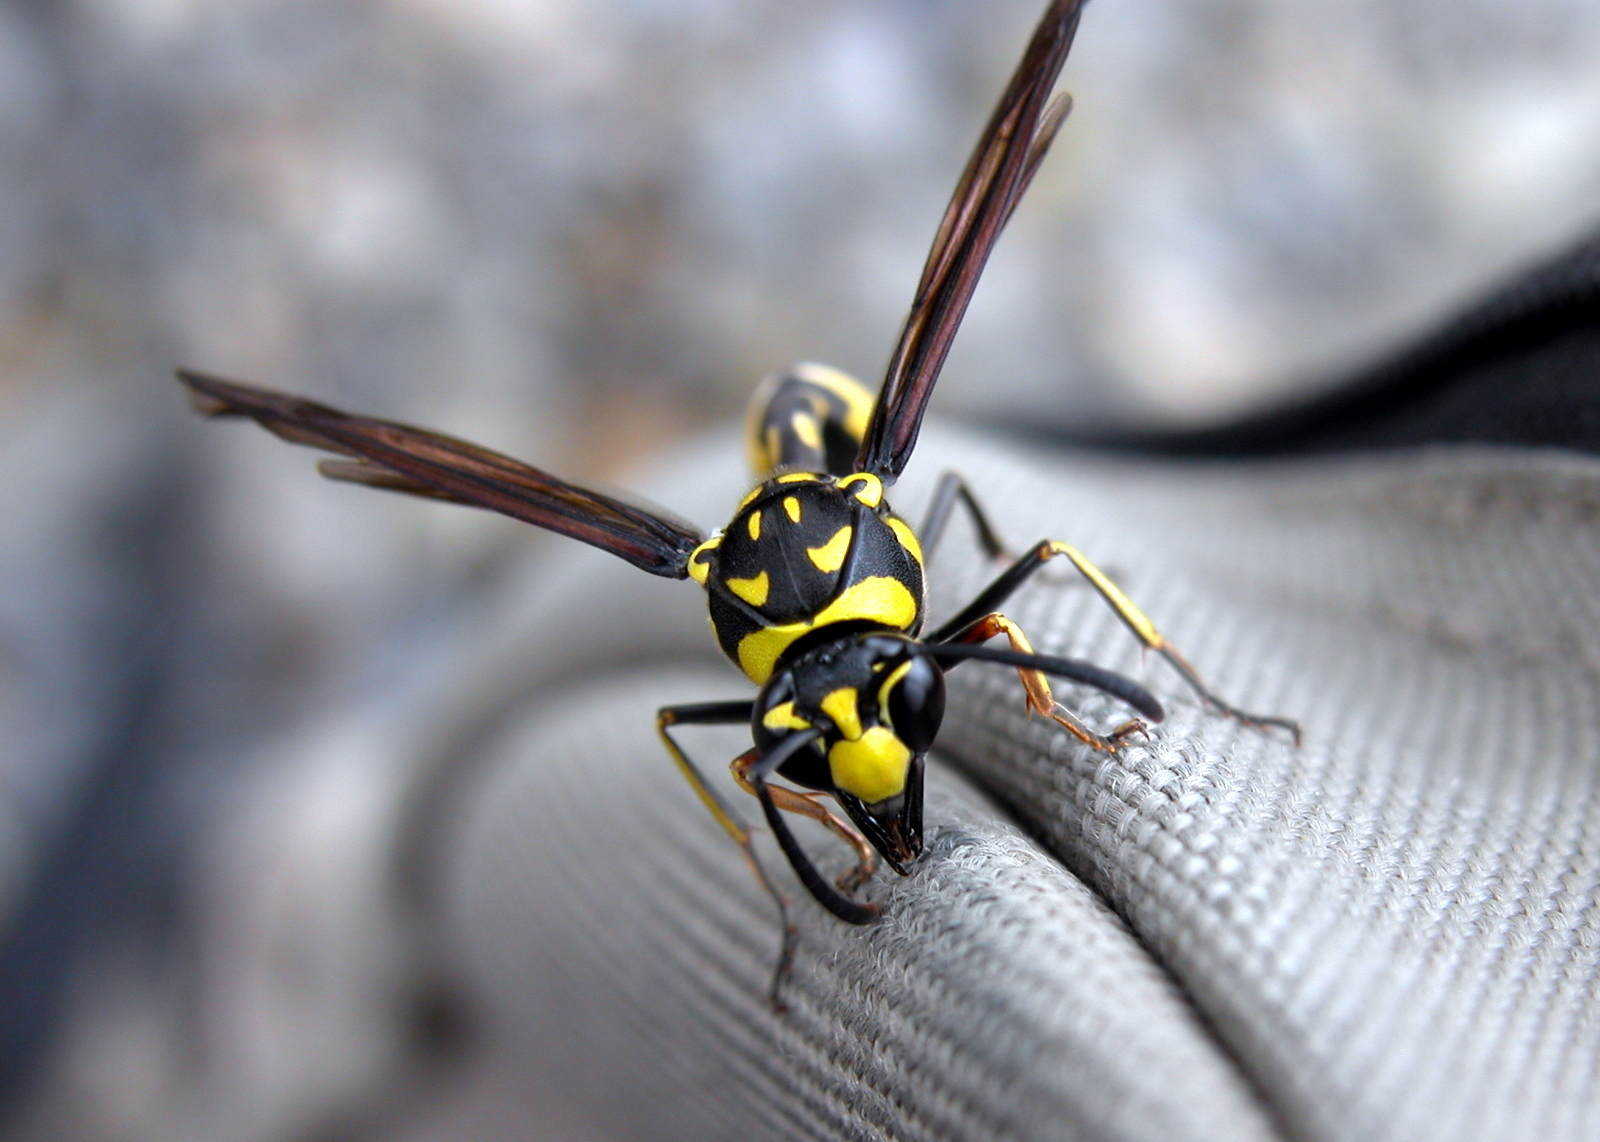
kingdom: Animalia
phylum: Arthropoda
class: Insecta
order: Hymenoptera
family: Eumenidae
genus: Phimenes
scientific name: Phimenes flavopictus
